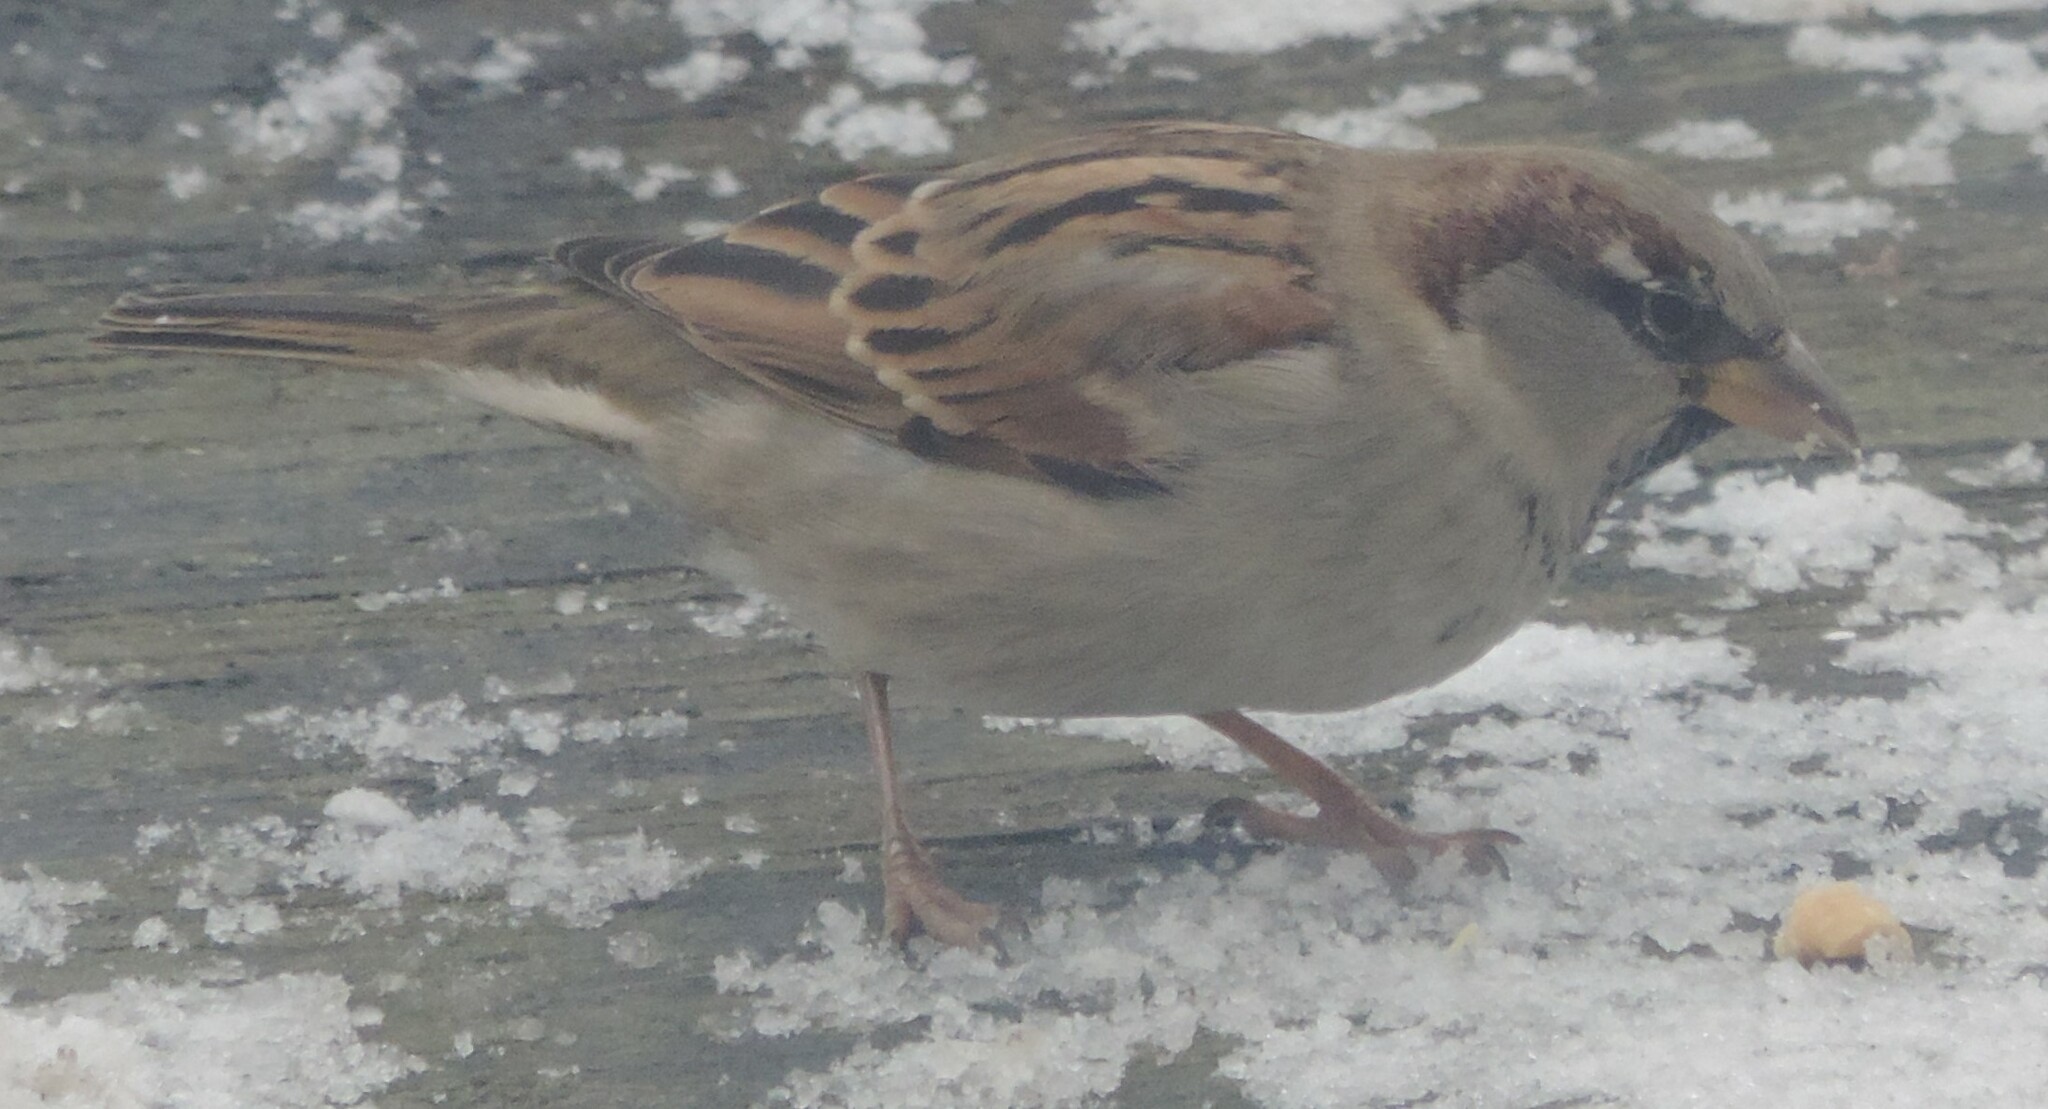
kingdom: Animalia
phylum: Chordata
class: Aves
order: Passeriformes
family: Passeridae
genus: Passer
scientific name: Passer domesticus
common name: House sparrow
